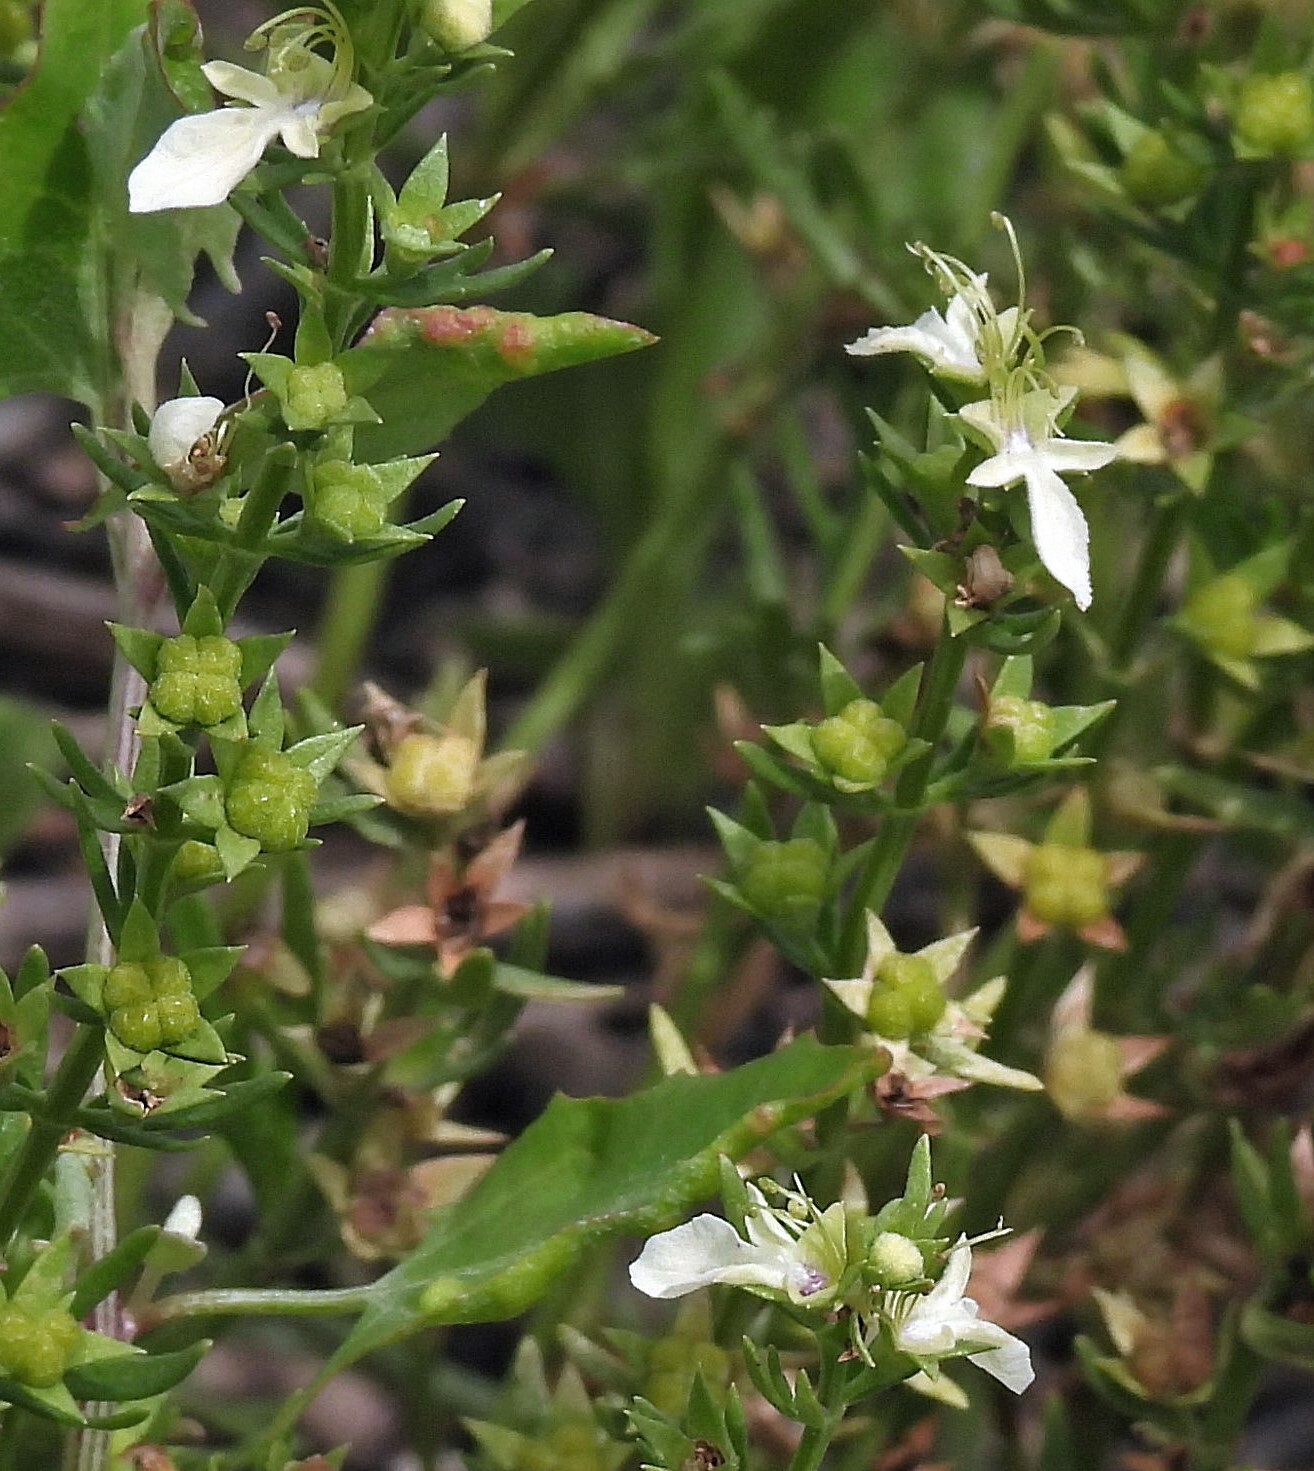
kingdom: Plantae
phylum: Tracheophyta
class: Magnoliopsida
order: Lamiales
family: Lamiaceae
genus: Teucrium
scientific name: Teucrium cubense
